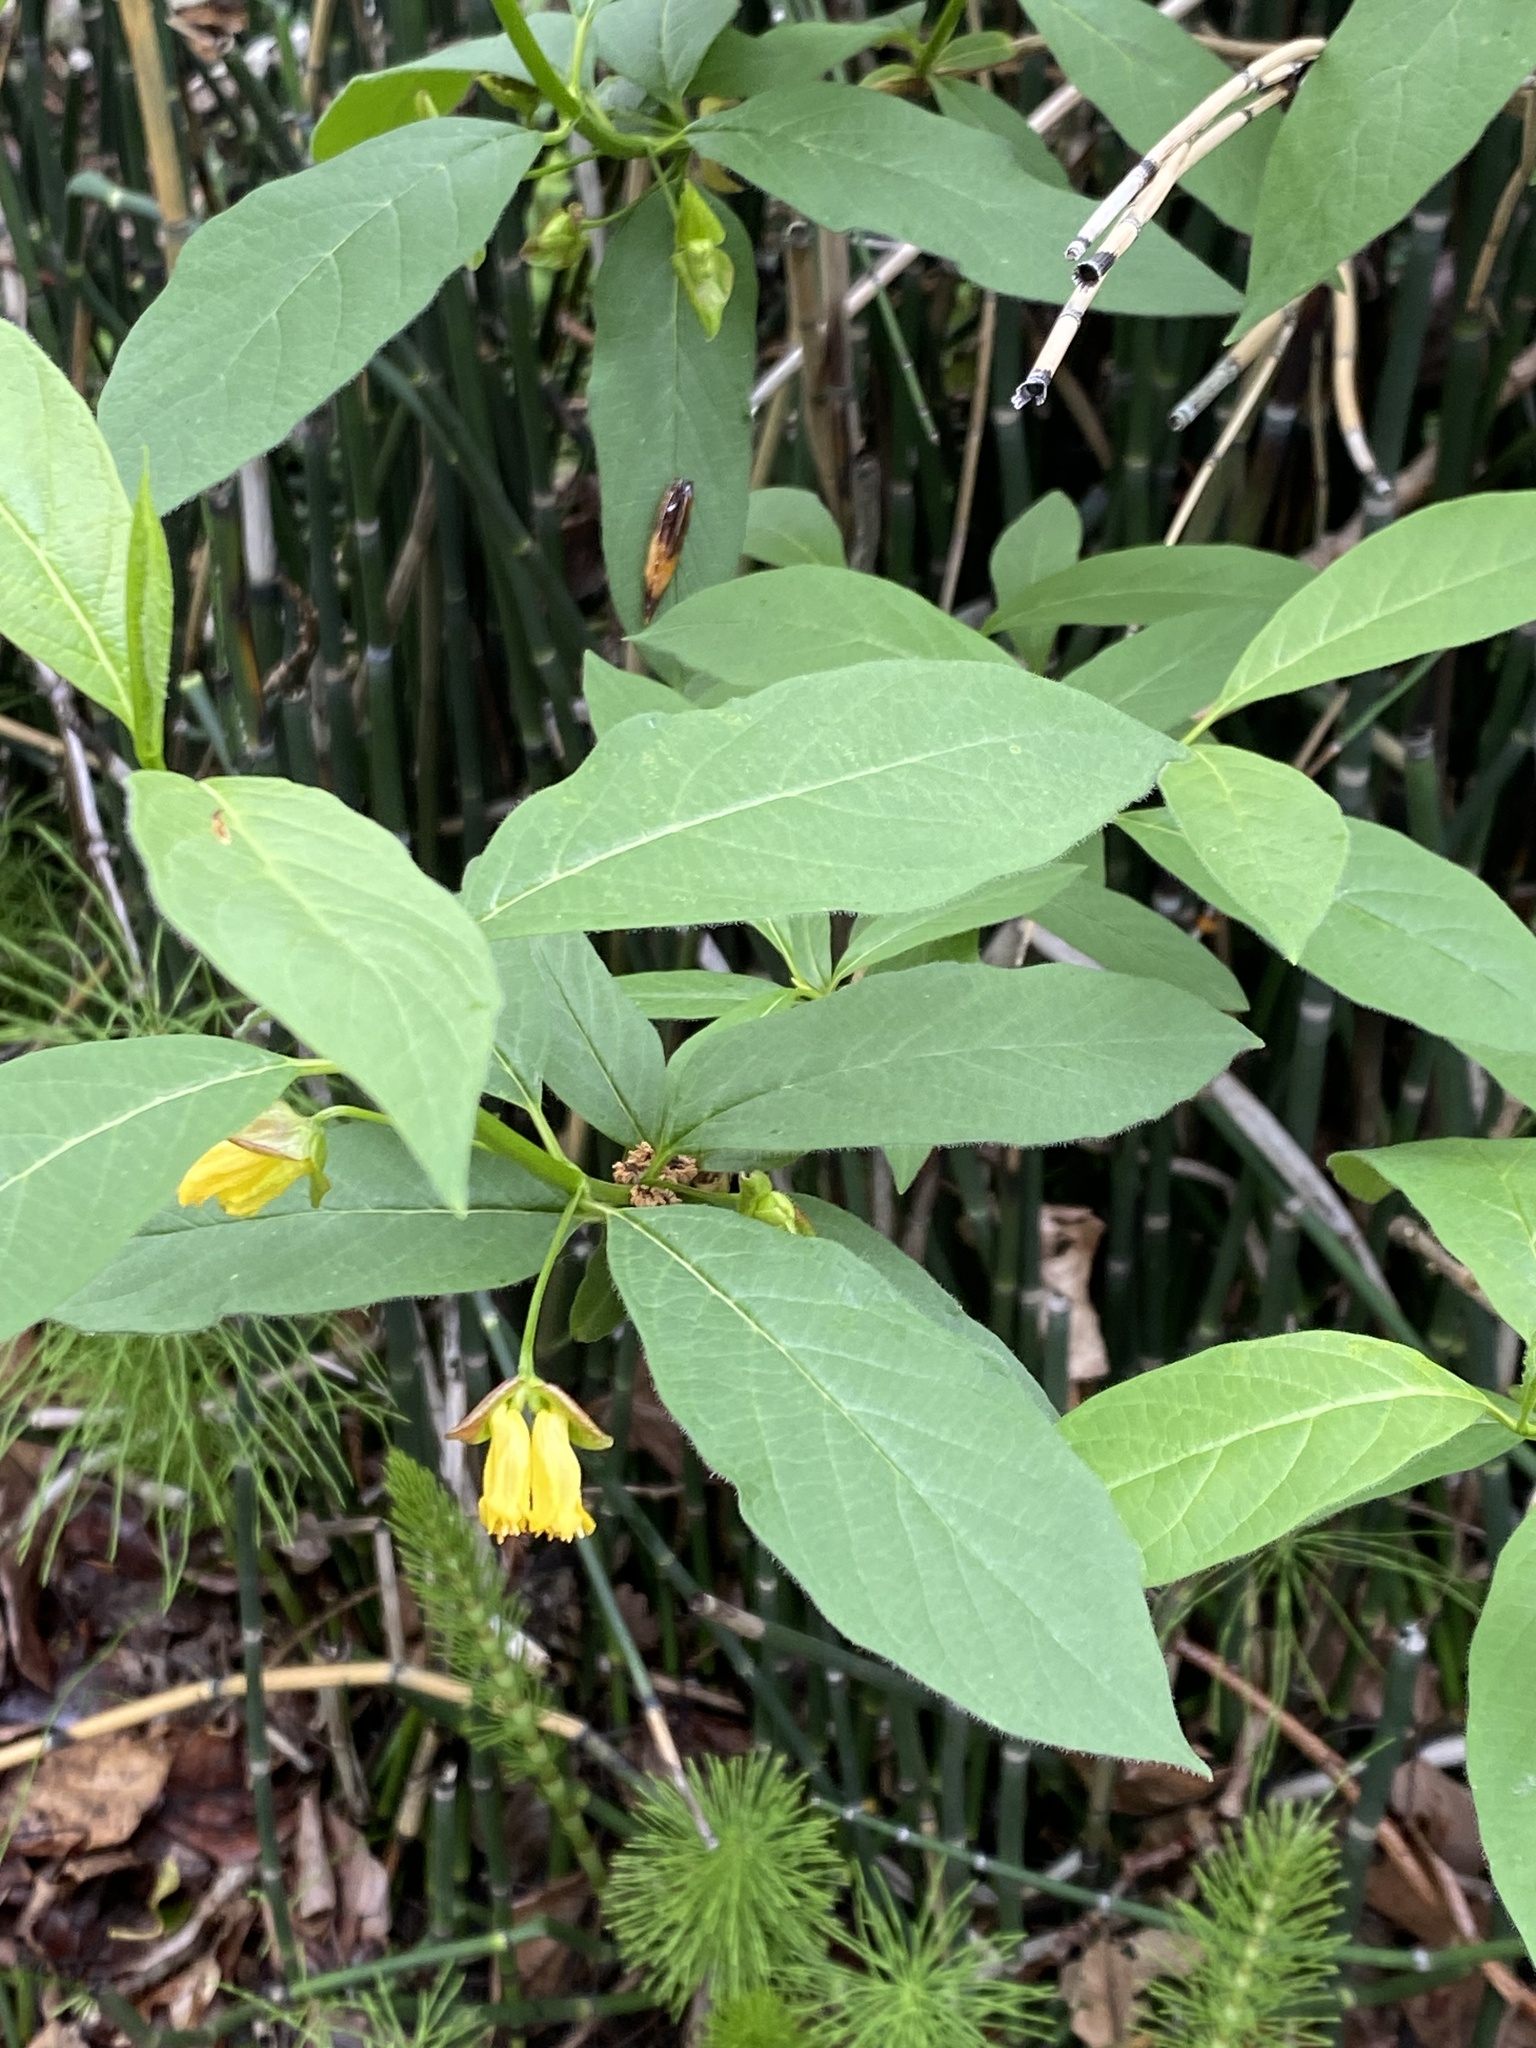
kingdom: Plantae
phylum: Tracheophyta
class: Magnoliopsida
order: Dipsacales
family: Caprifoliaceae
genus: Lonicera
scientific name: Lonicera involucrata
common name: Californian honeysuckle
